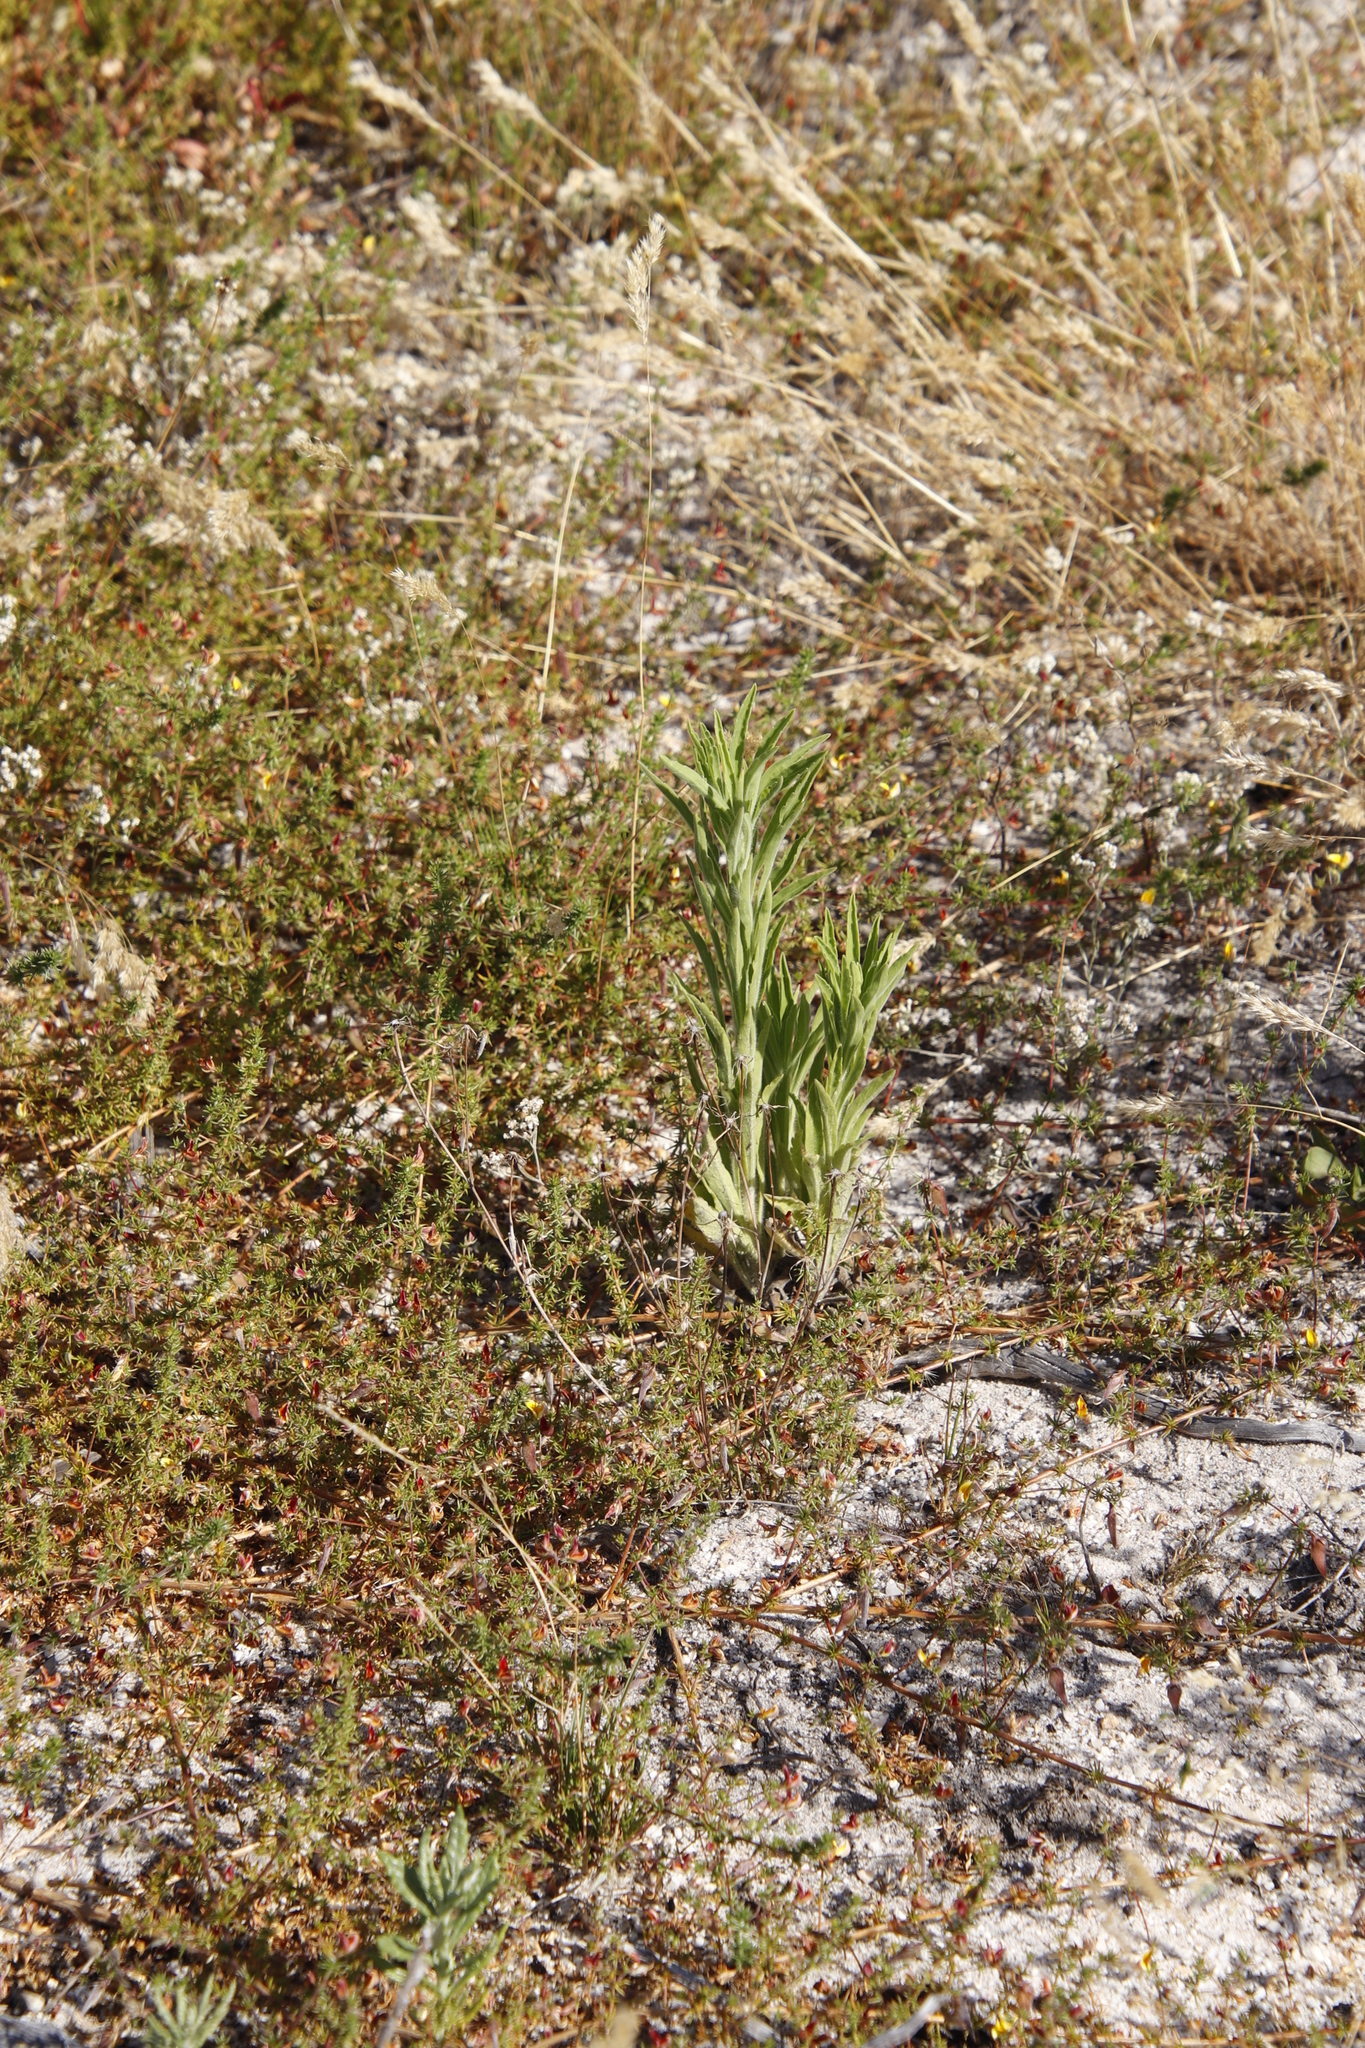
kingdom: Plantae
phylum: Tracheophyta
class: Magnoliopsida
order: Asterales
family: Asteraceae
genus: Erigeron
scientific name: Erigeron sumatrensis
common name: Daisy
